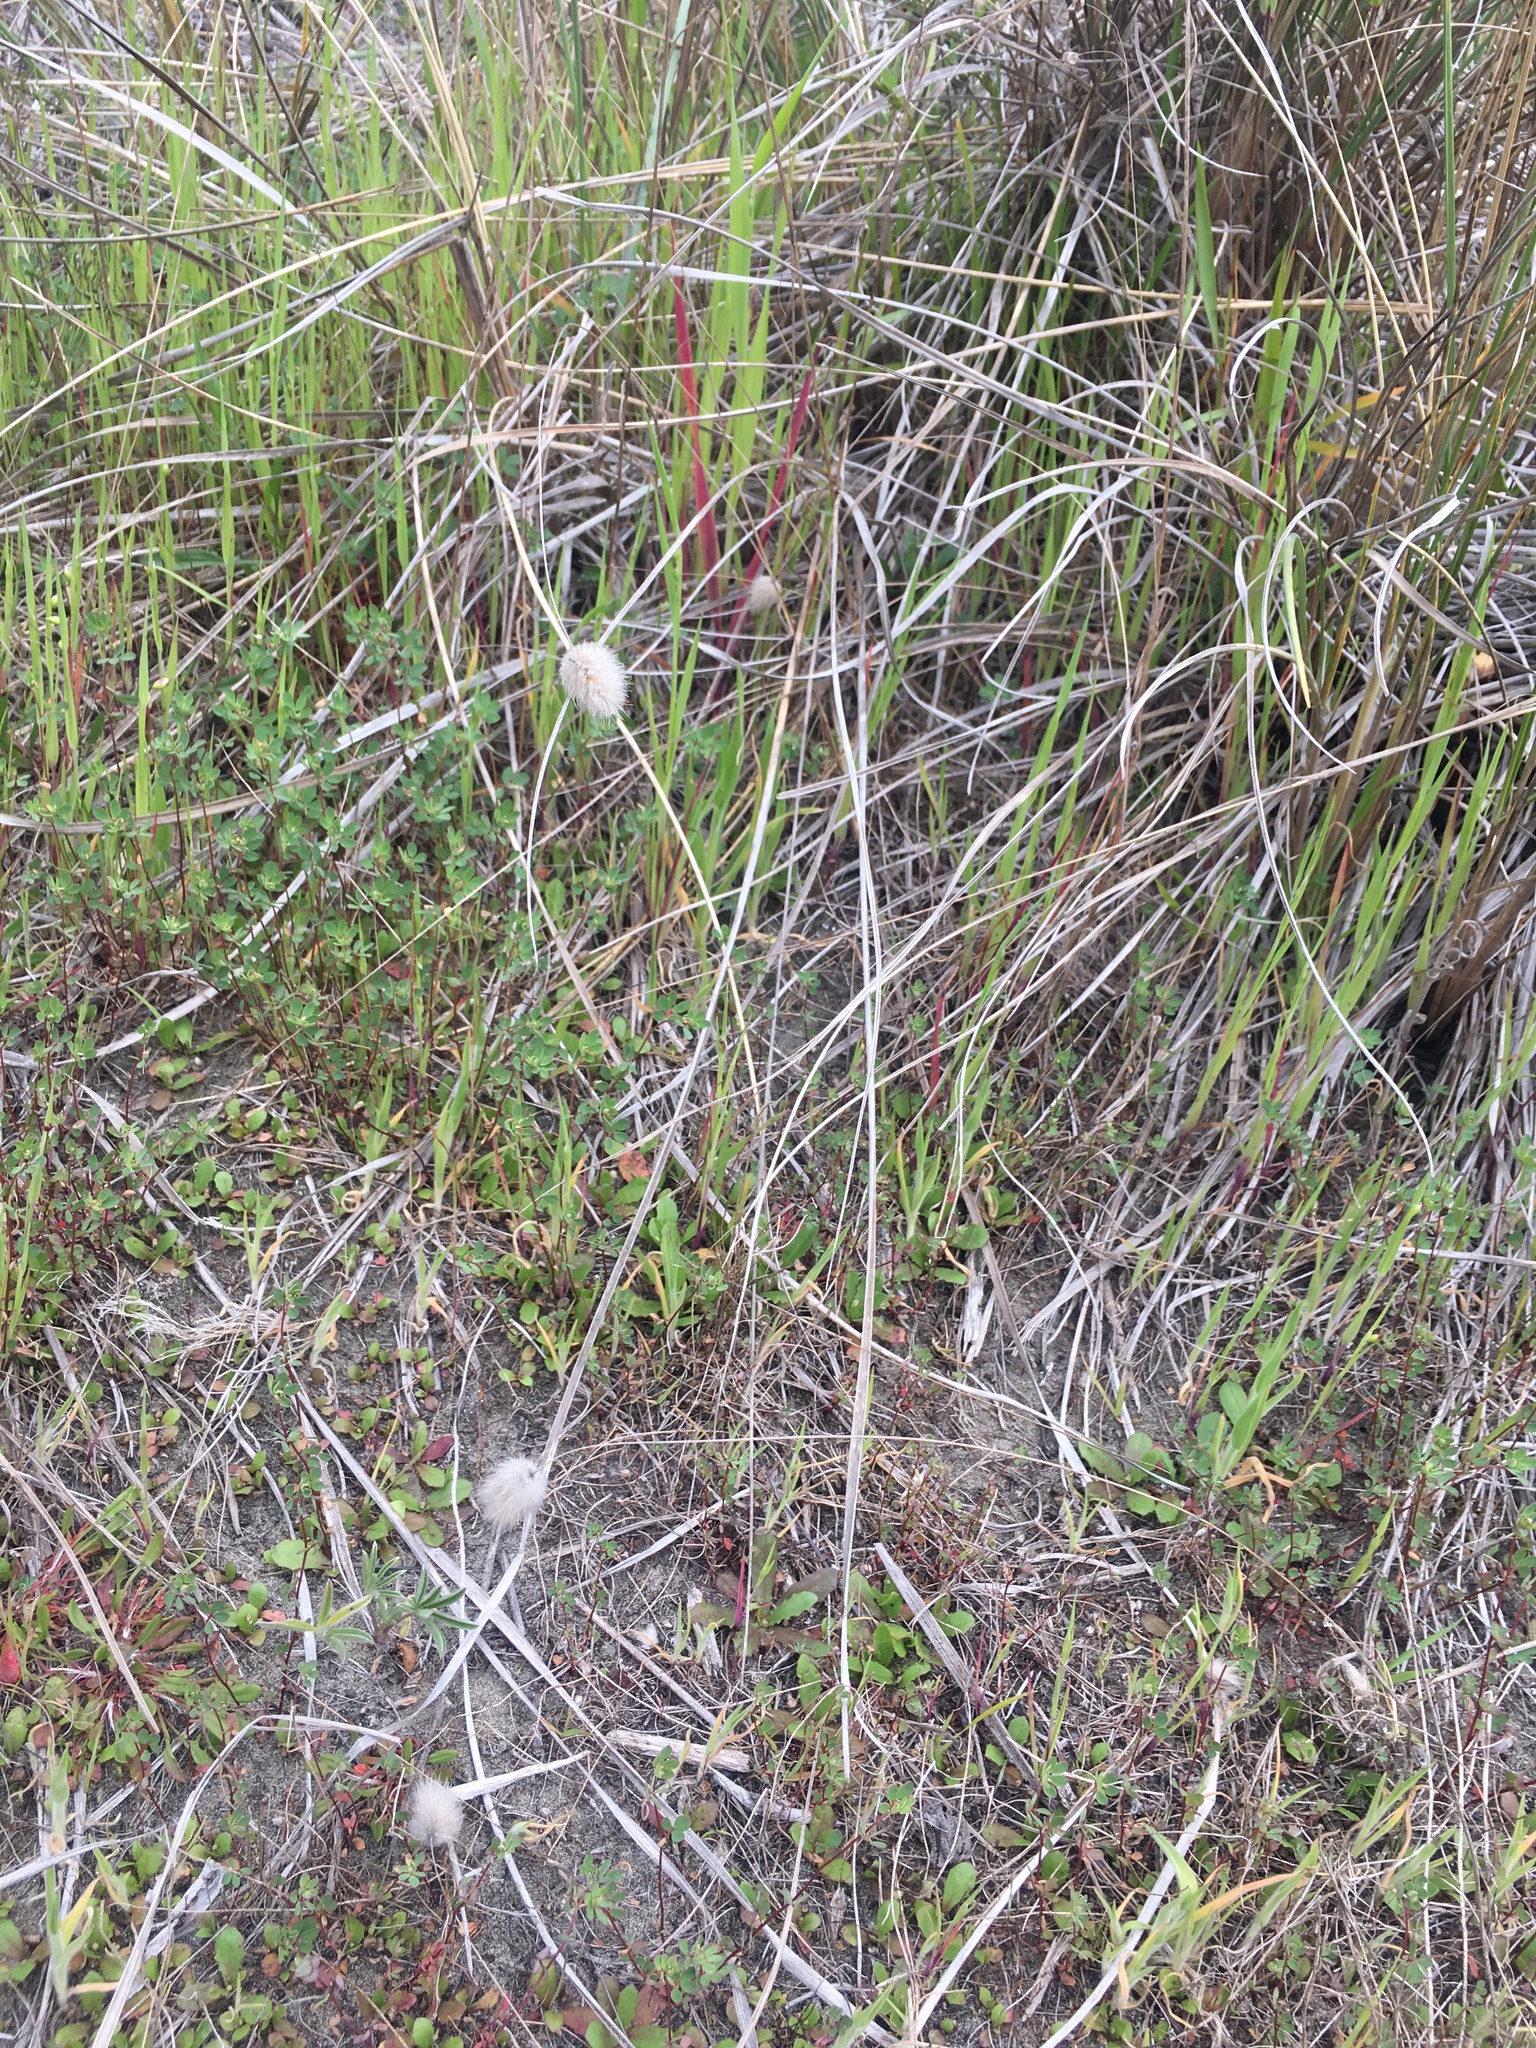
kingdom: Plantae
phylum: Tracheophyta
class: Liliopsida
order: Poales
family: Poaceae
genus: Lagurus
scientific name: Lagurus ovatus
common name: Hare's-tail
